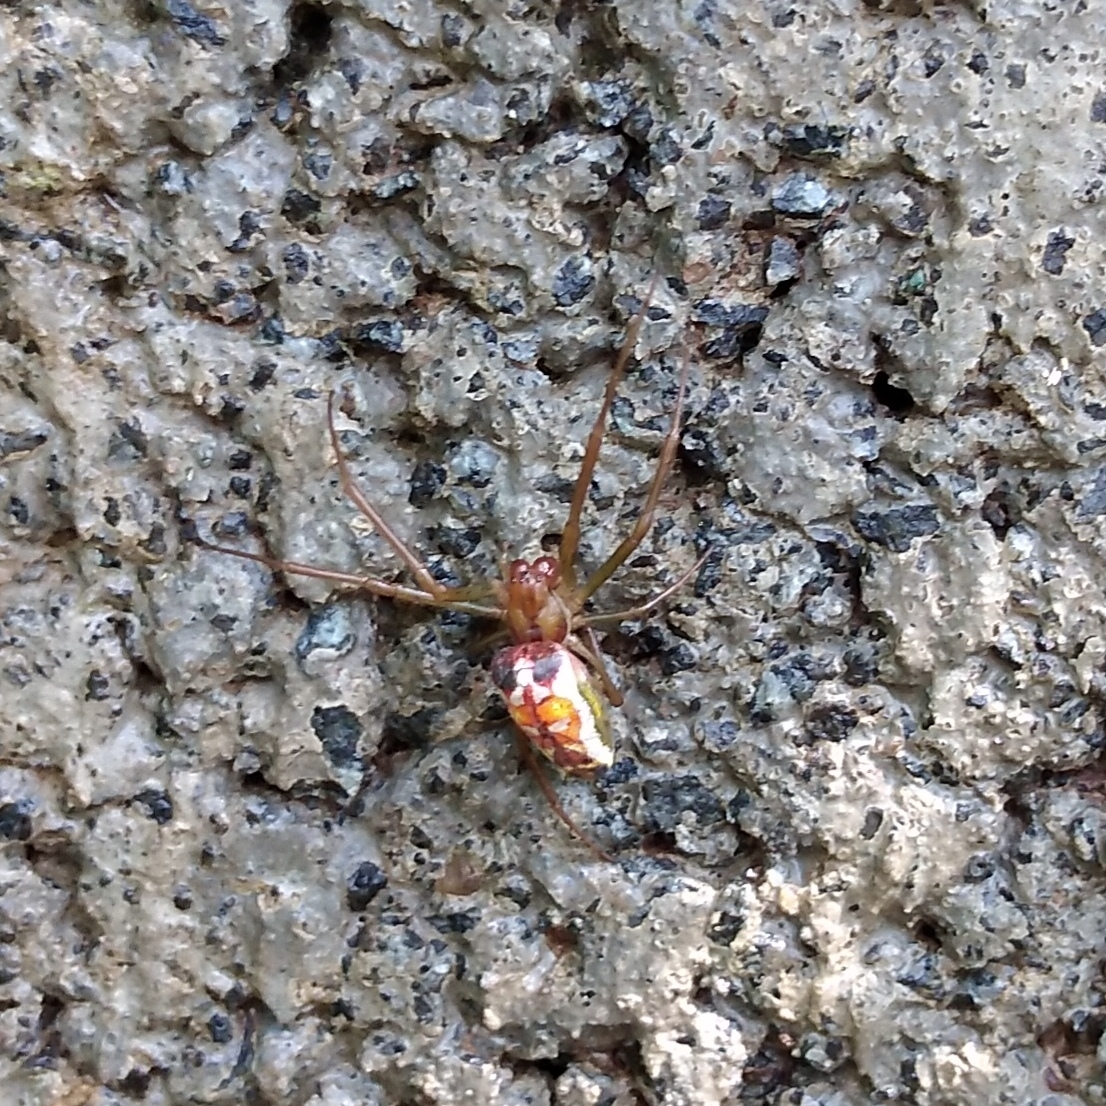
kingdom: Animalia
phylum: Arthropoda
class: Arachnida
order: Araneae
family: Tetragnathidae
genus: Leucauge
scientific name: Leucauge festiva
